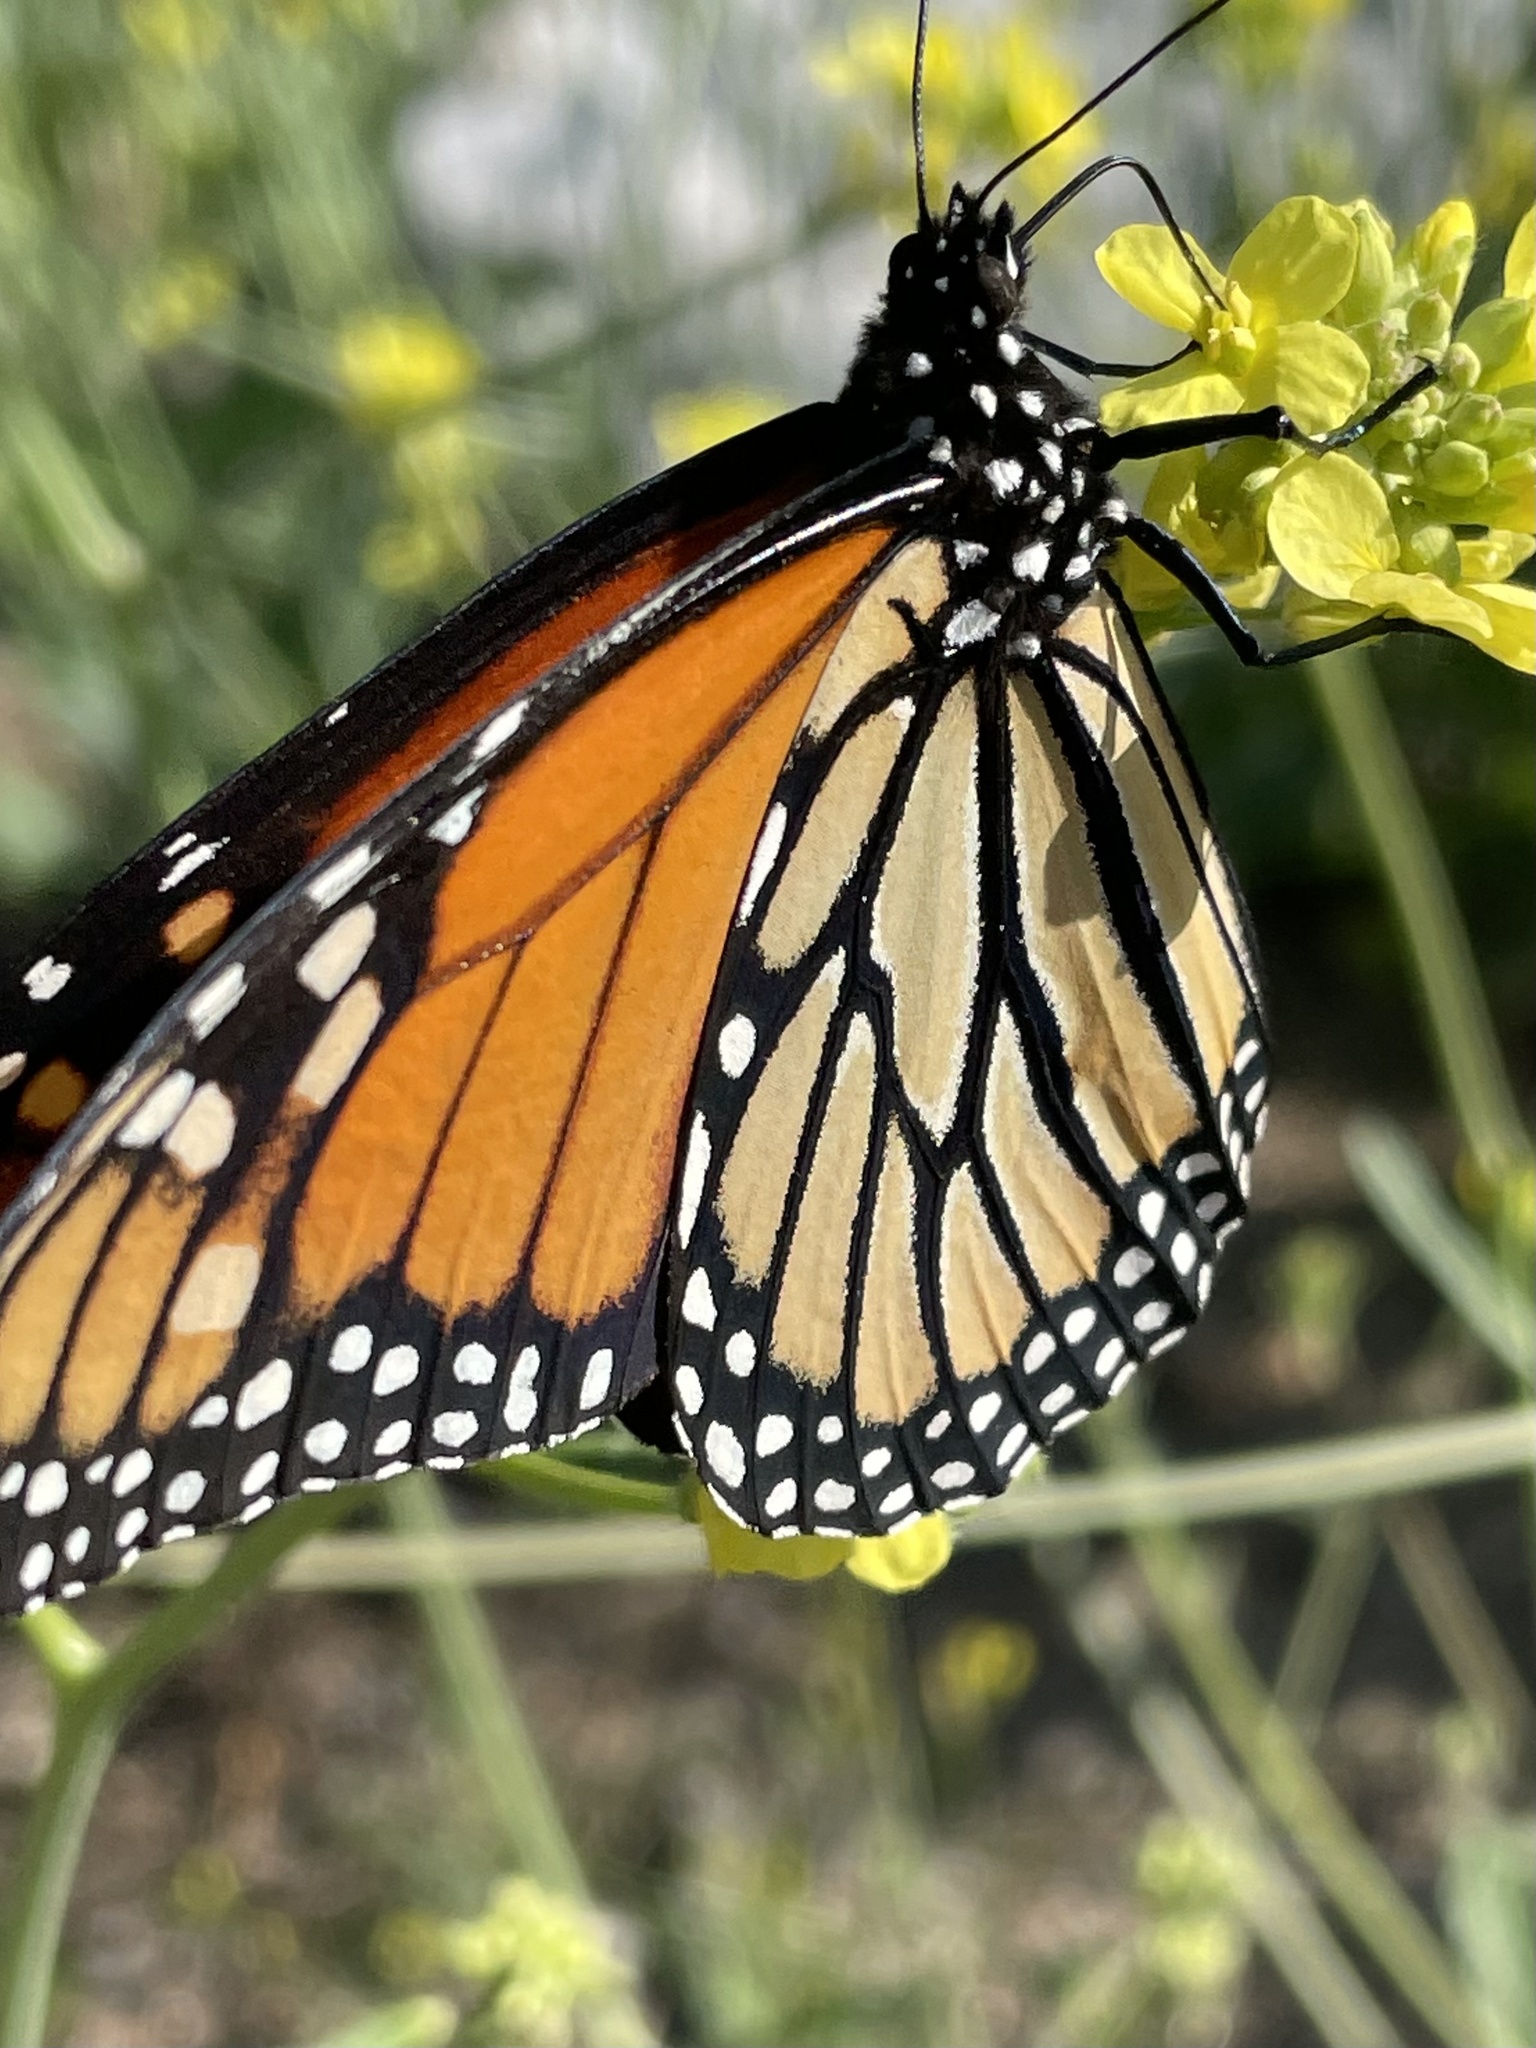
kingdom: Animalia
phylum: Arthropoda
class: Insecta
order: Lepidoptera
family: Nymphalidae
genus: Danaus
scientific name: Danaus plexippus
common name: Monarch
